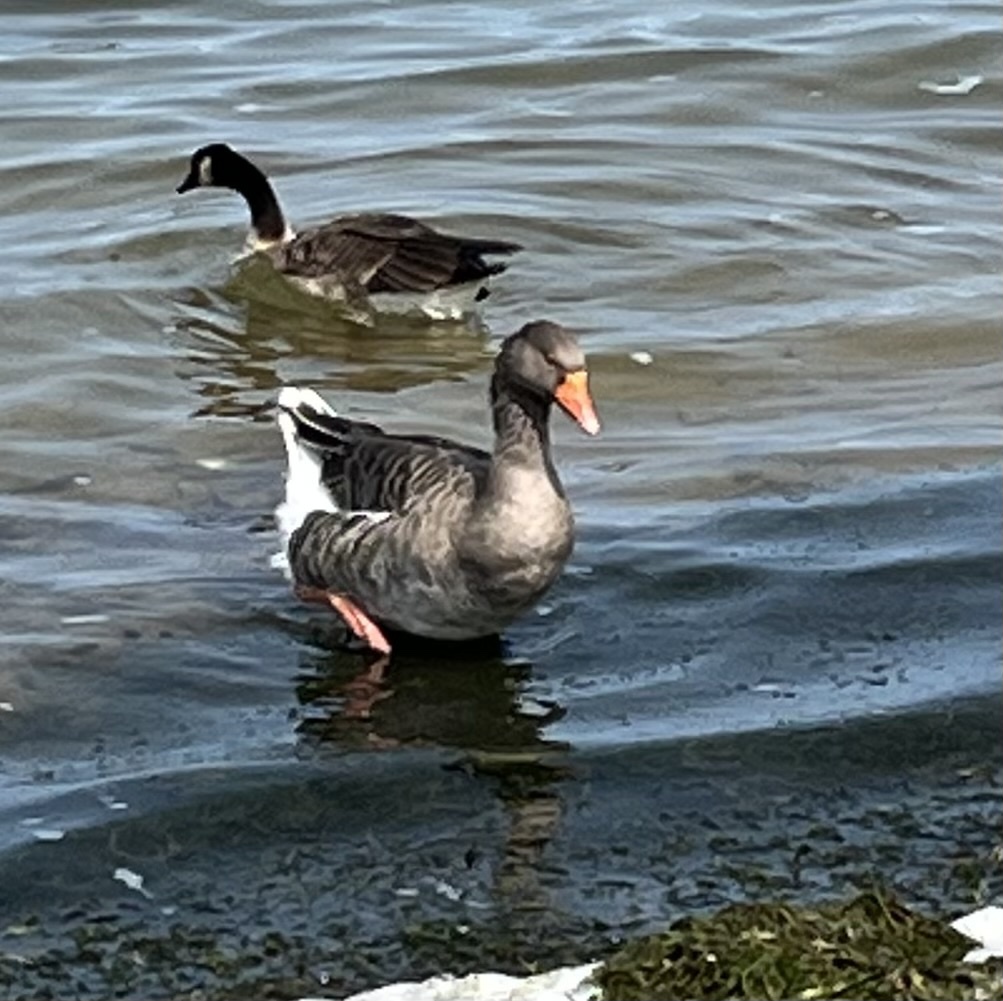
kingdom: Animalia
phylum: Chordata
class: Aves
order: Anseriformes
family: Anatidae
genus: Anser
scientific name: Anser anser
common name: Greylag goose
